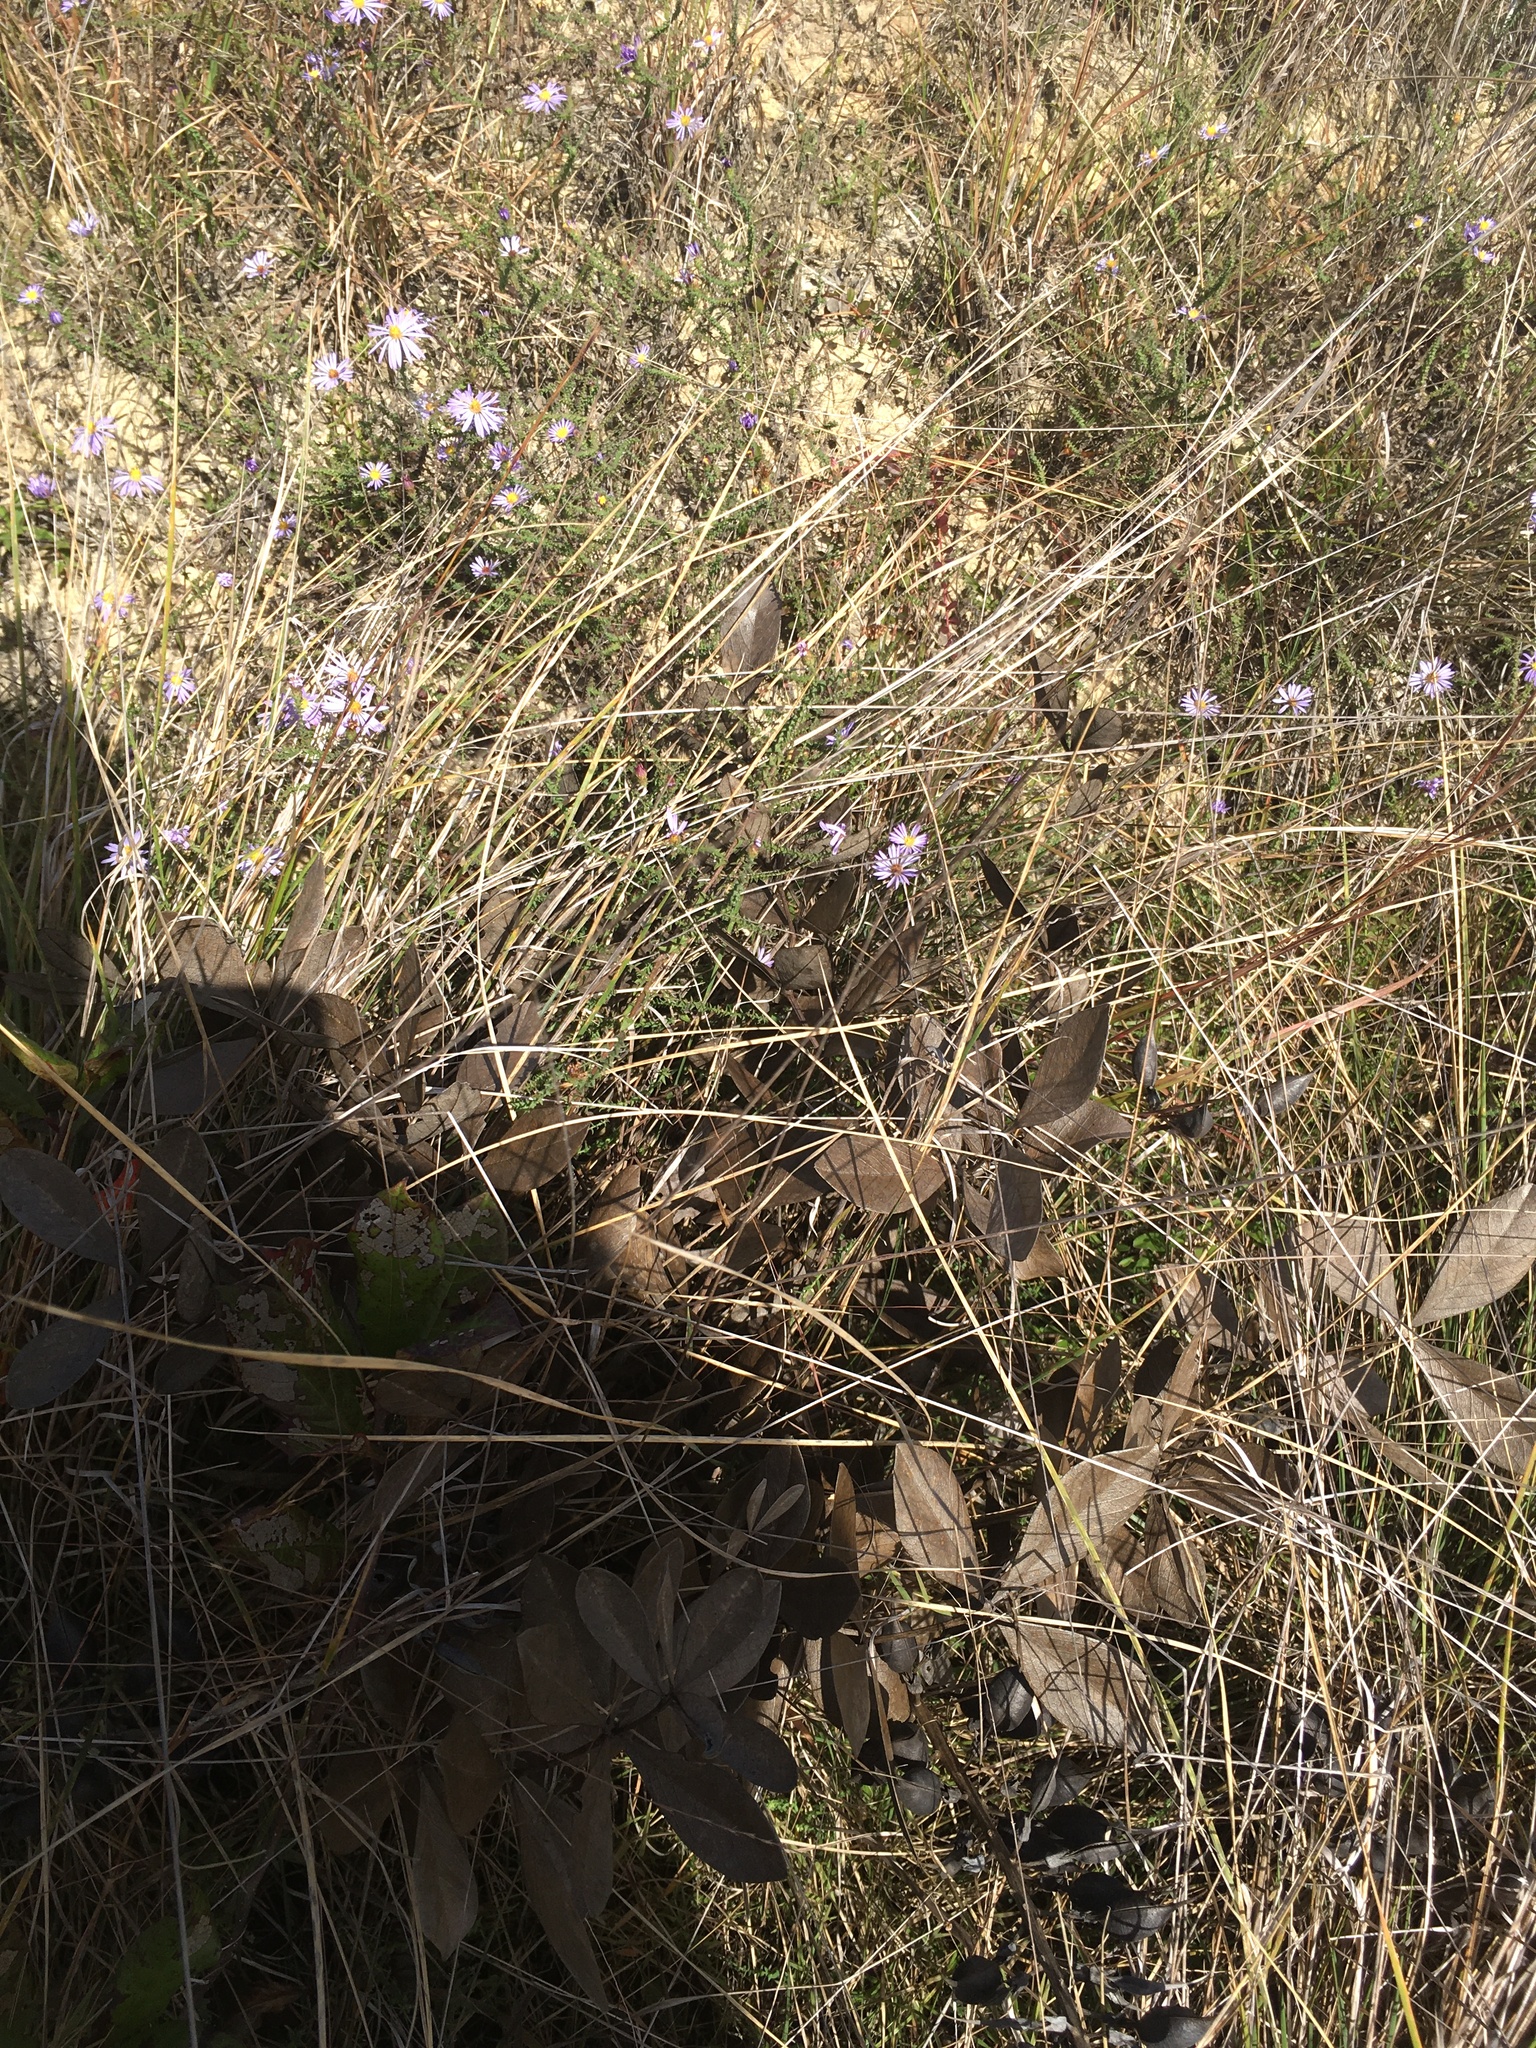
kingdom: Plantae
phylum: Tracheophyta
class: Magnoliopsida
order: Fabales
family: Fabaceae
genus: Baptisia
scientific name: Baptisia cinerea
